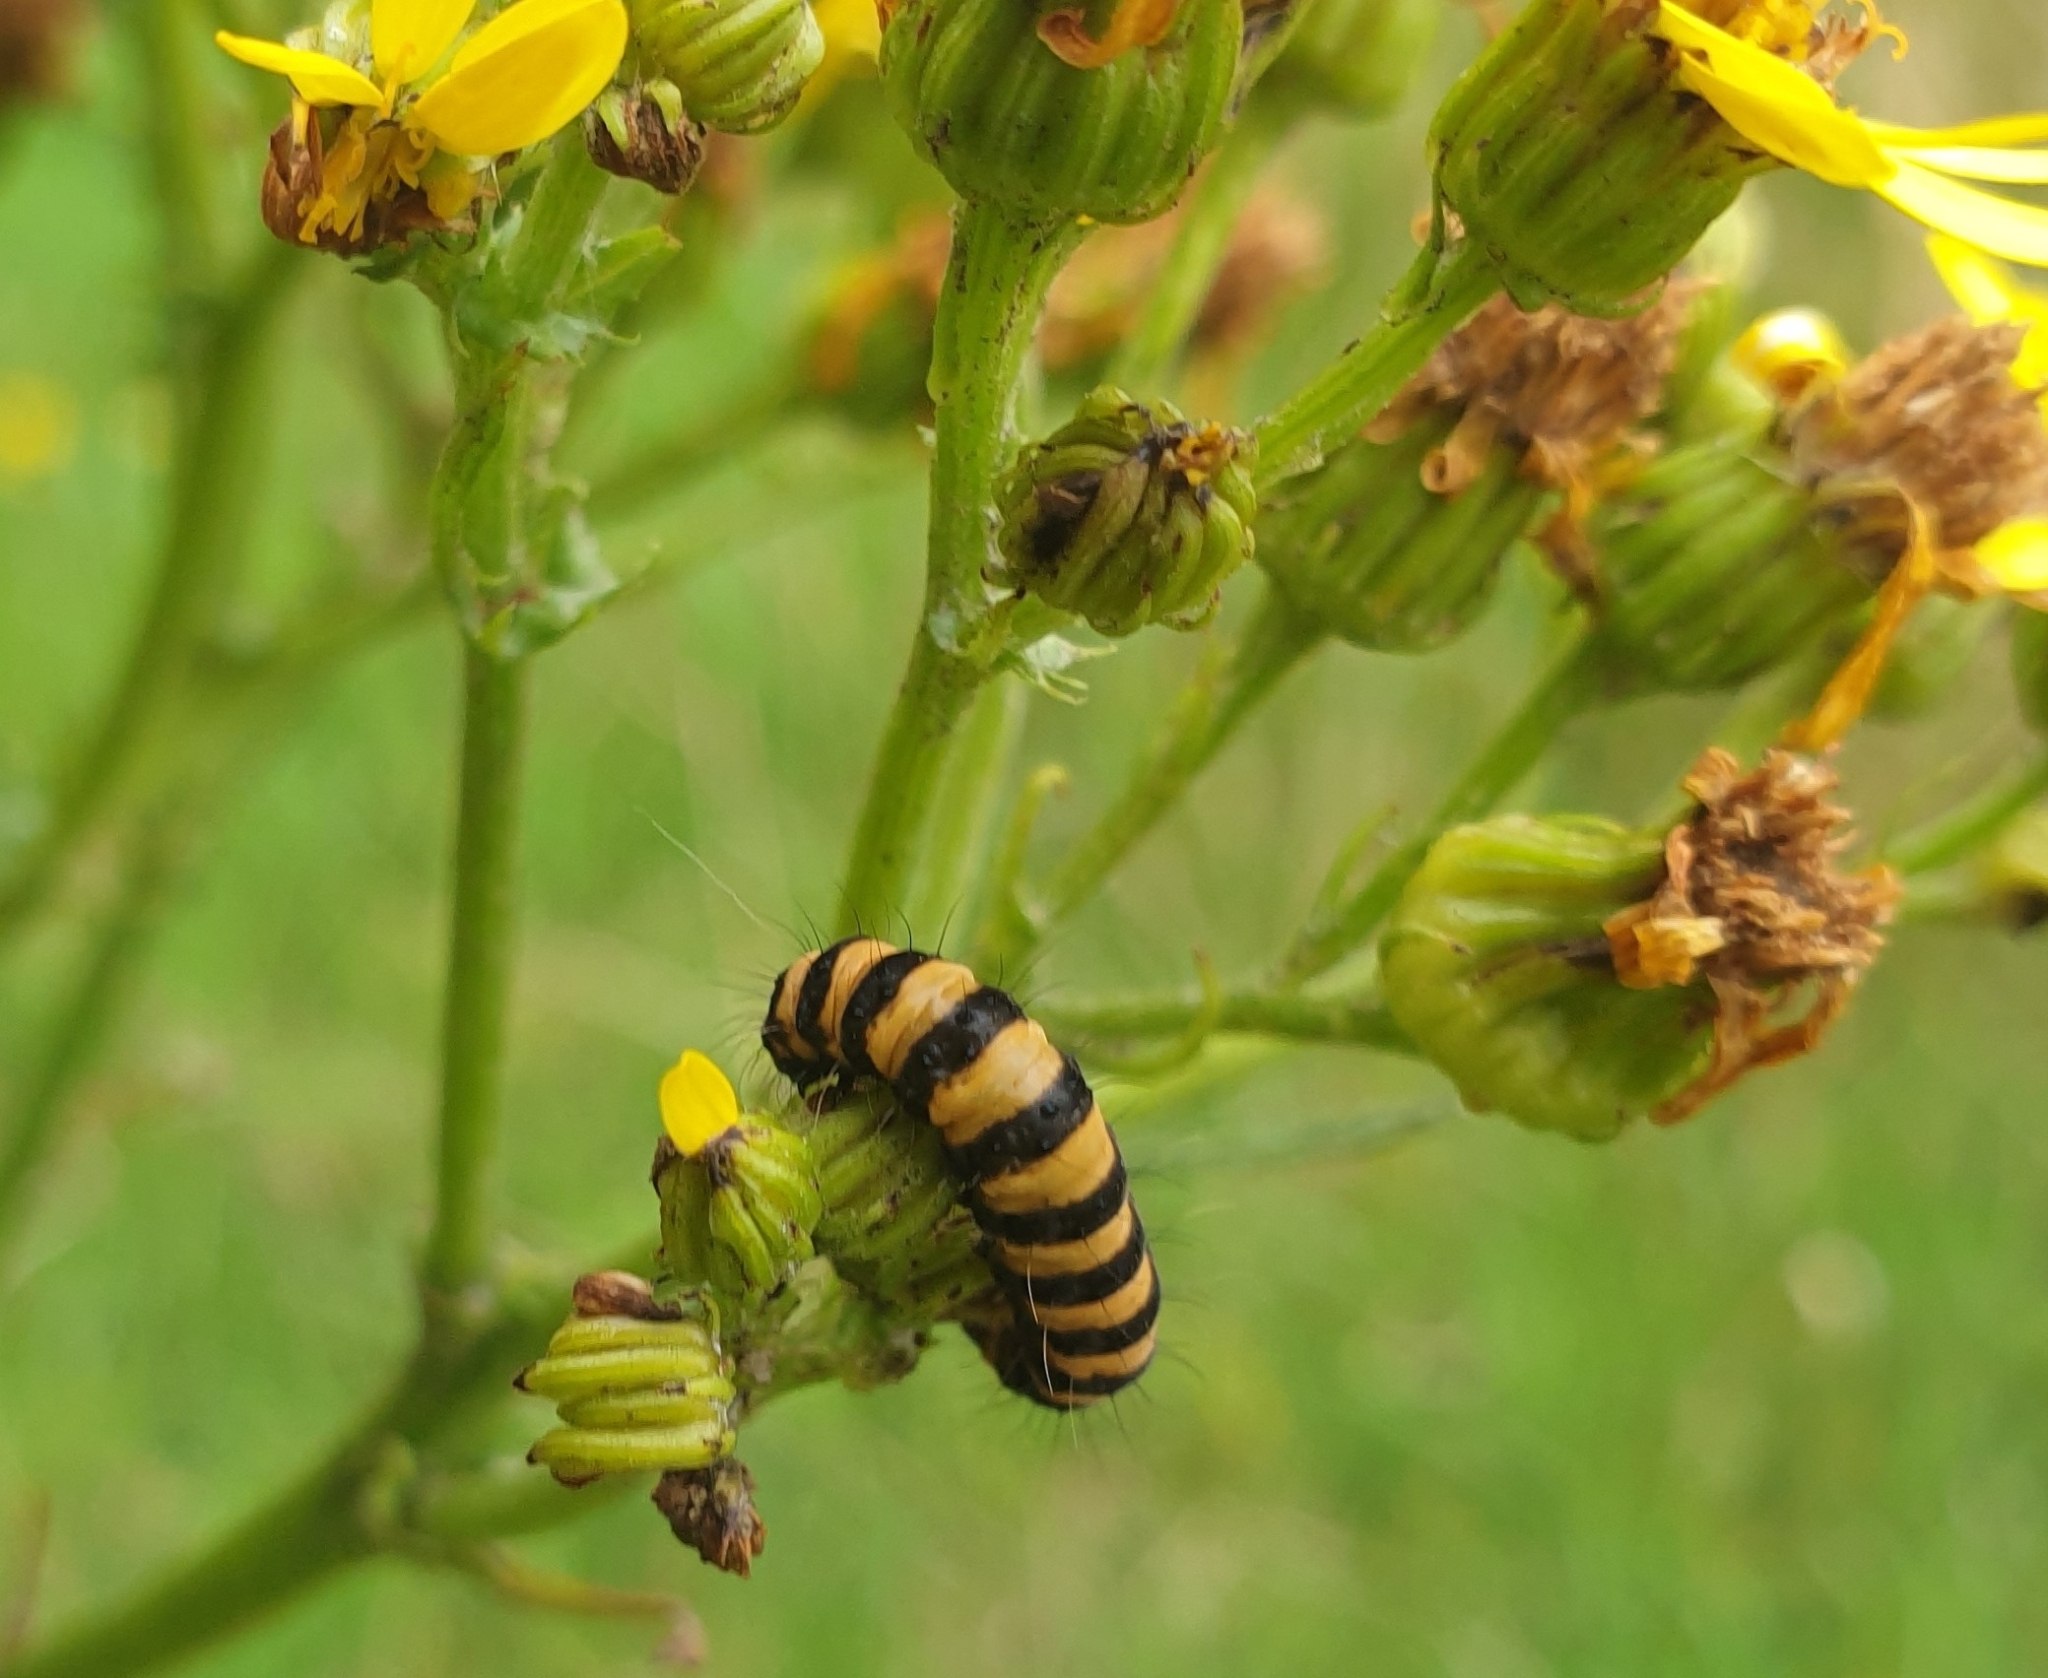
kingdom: Animalia
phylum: Arthropoda
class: Insecta
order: Lepidoptera
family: Erebidae
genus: Tyria
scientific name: Tyria jacobaeae
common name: Cinnabar
